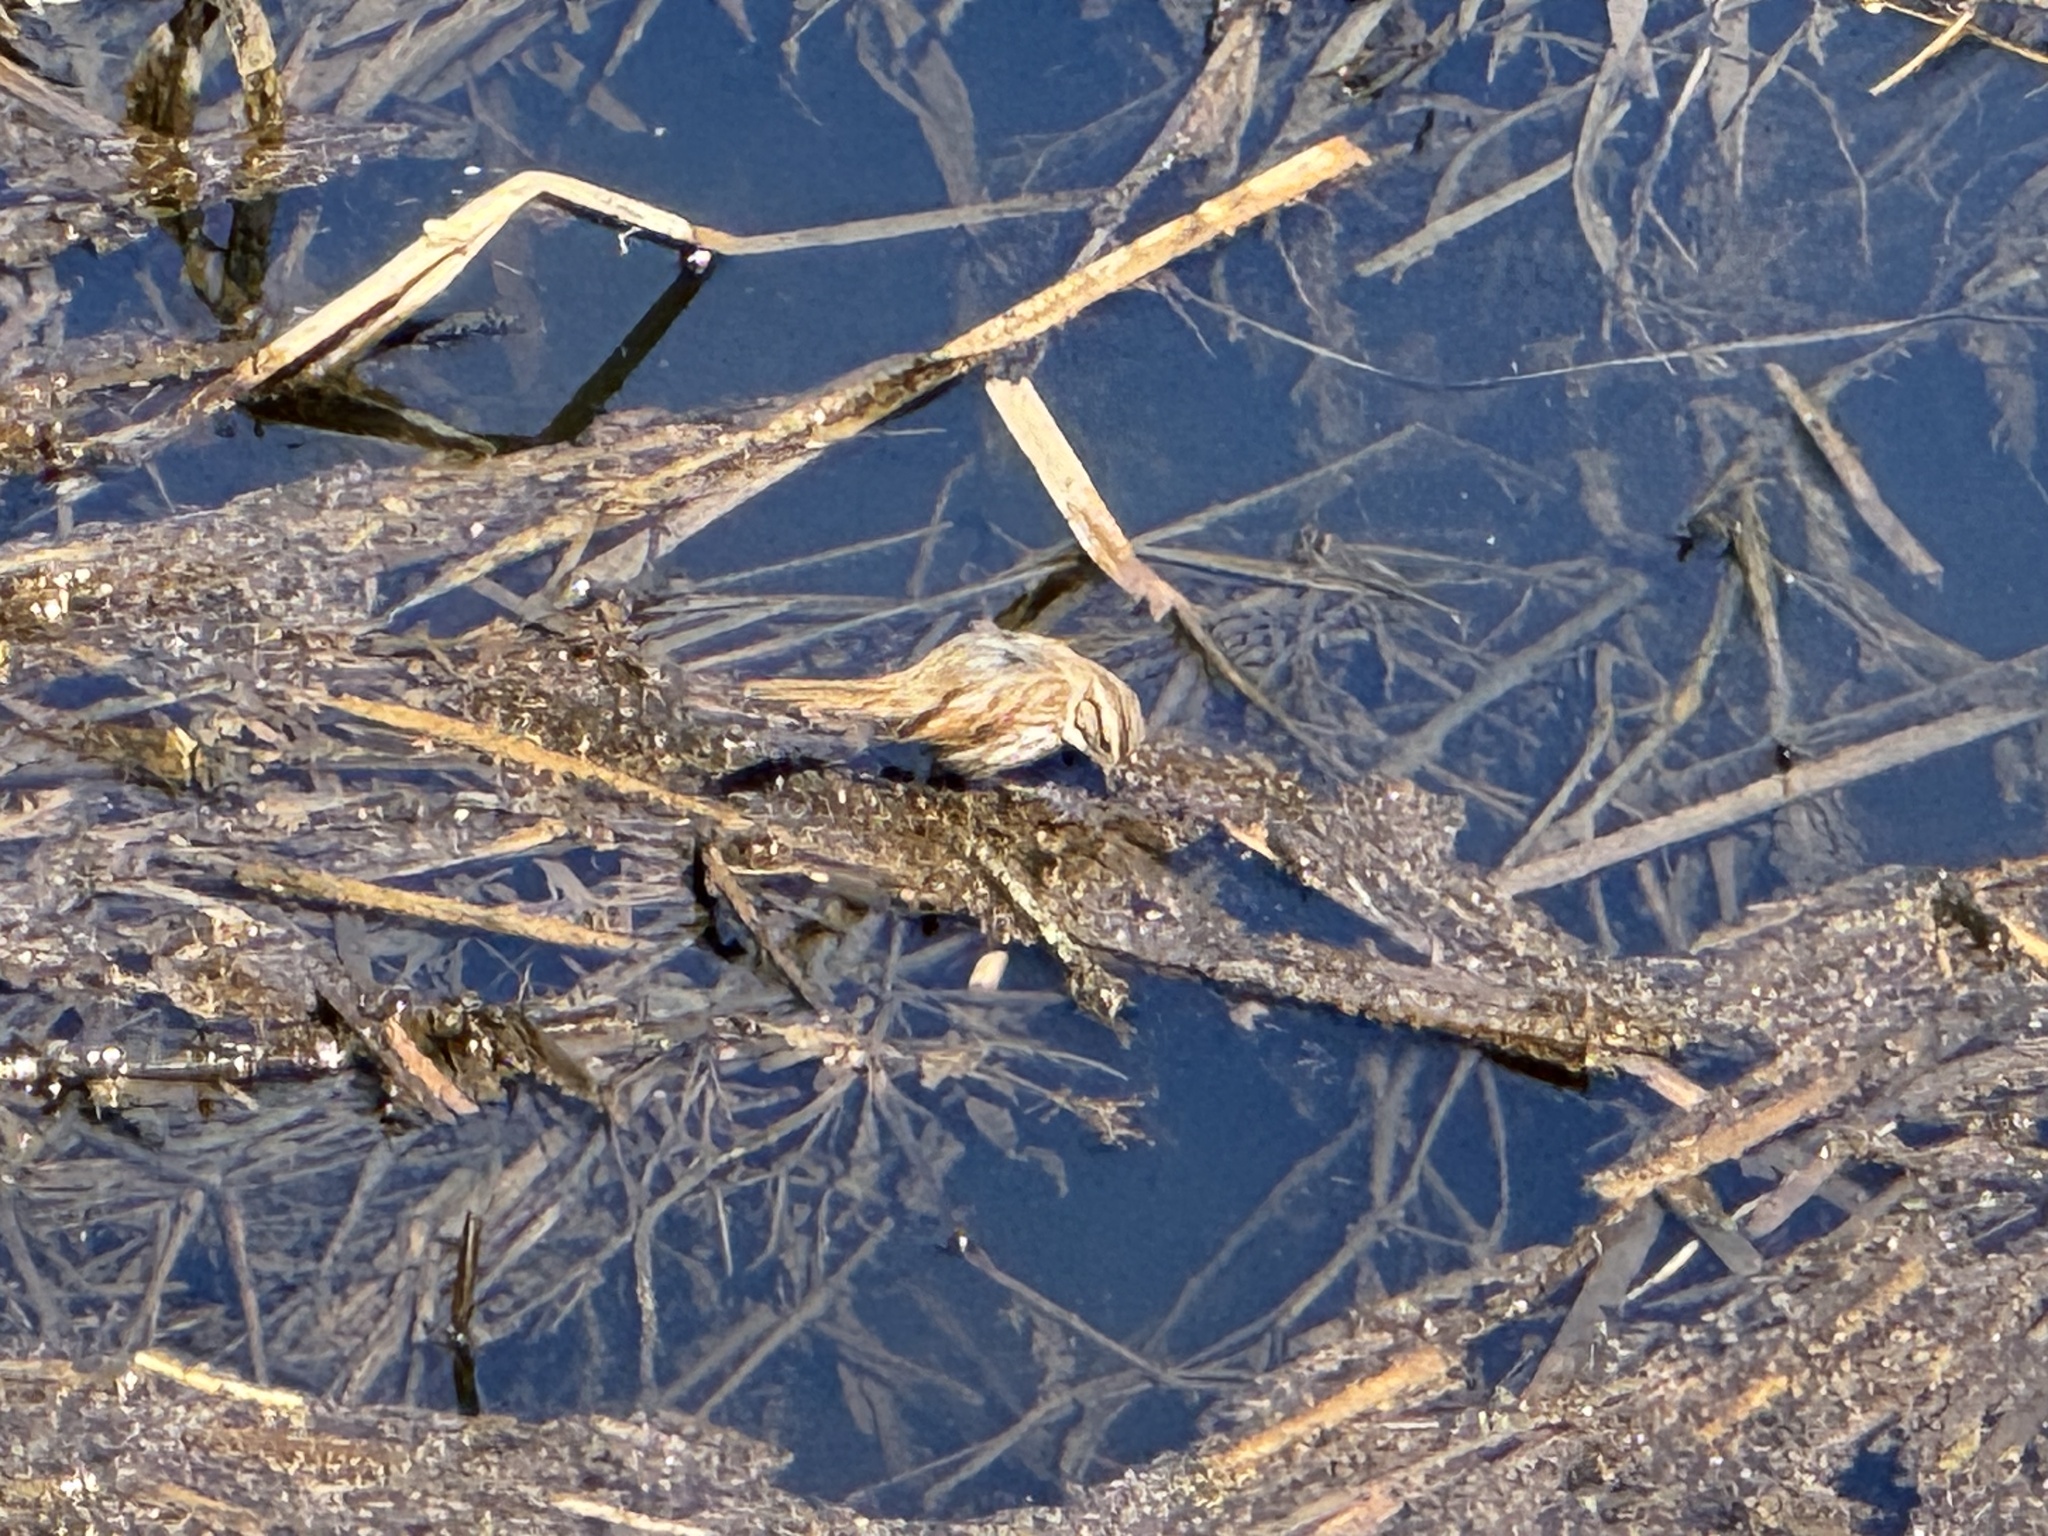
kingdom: Animalia
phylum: Chordata
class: Aves
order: Passeriformes
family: Passerellidae
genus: Melospiza
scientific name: Melospiza melodia
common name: Song sparrow
